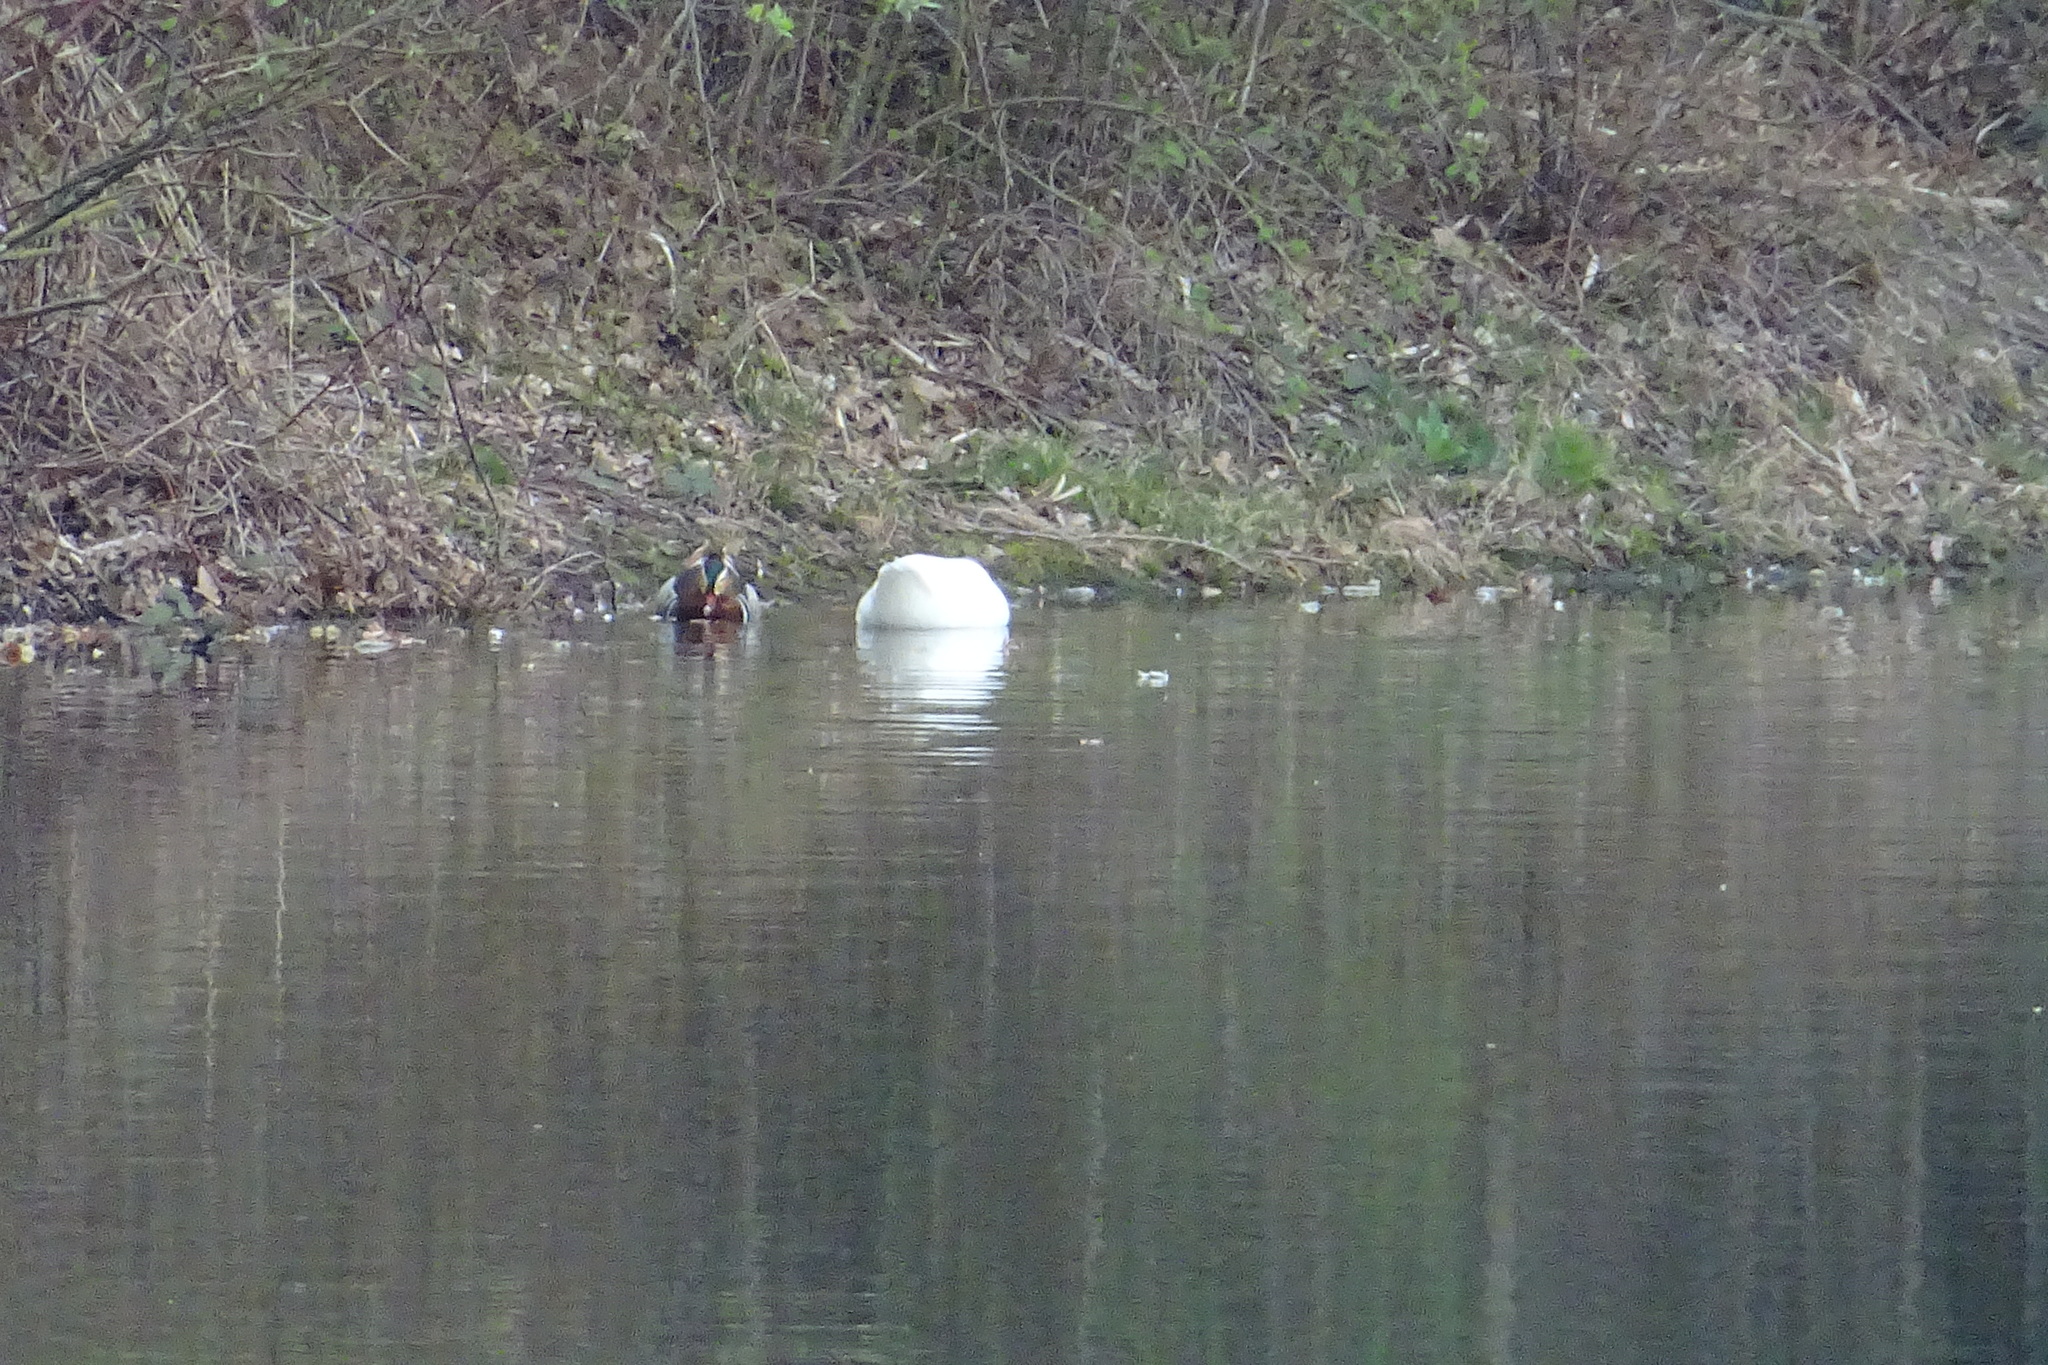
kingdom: Animalia
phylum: Chordata
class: Aves
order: Anseriformes
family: Anatidae
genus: Aix
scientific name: Aix galericulata
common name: Mandarin duck
